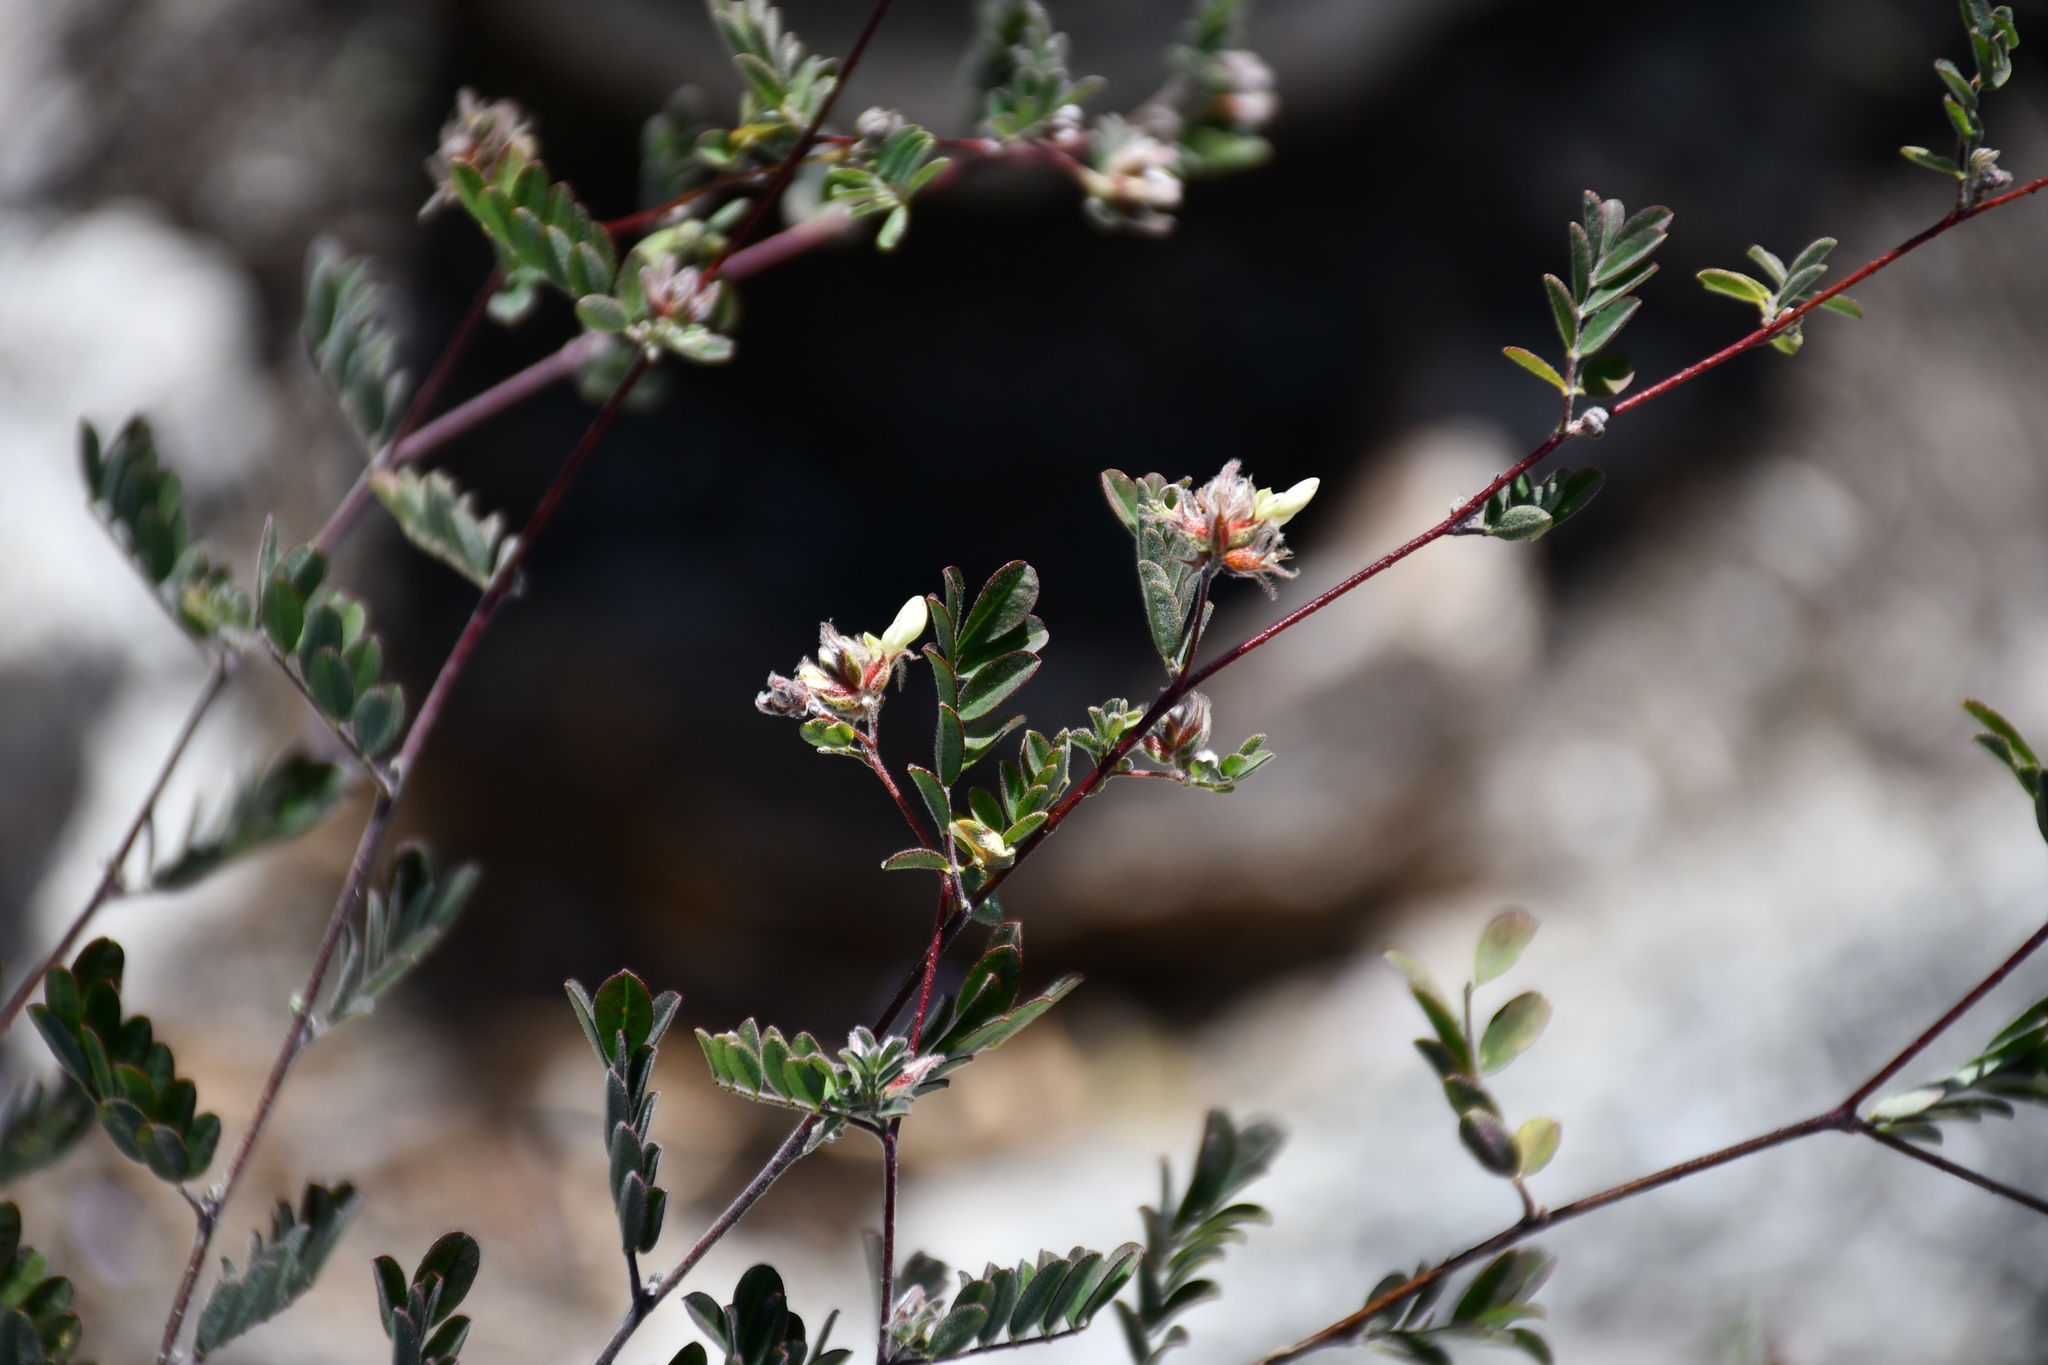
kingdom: Plantae
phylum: Tracheophyta
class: Magnoliopsida
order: Fabales
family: Fabaceae
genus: Dalea
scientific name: Dalea carthagenensis
